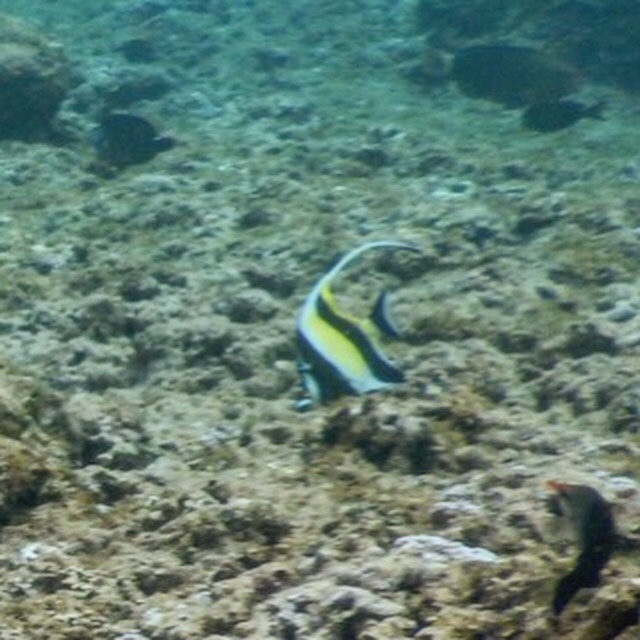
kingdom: Animalia
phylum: Chordata
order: Perciformes
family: Zanclidae
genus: Zanclus
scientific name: Zanclus cornutus
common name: Moorish idol
